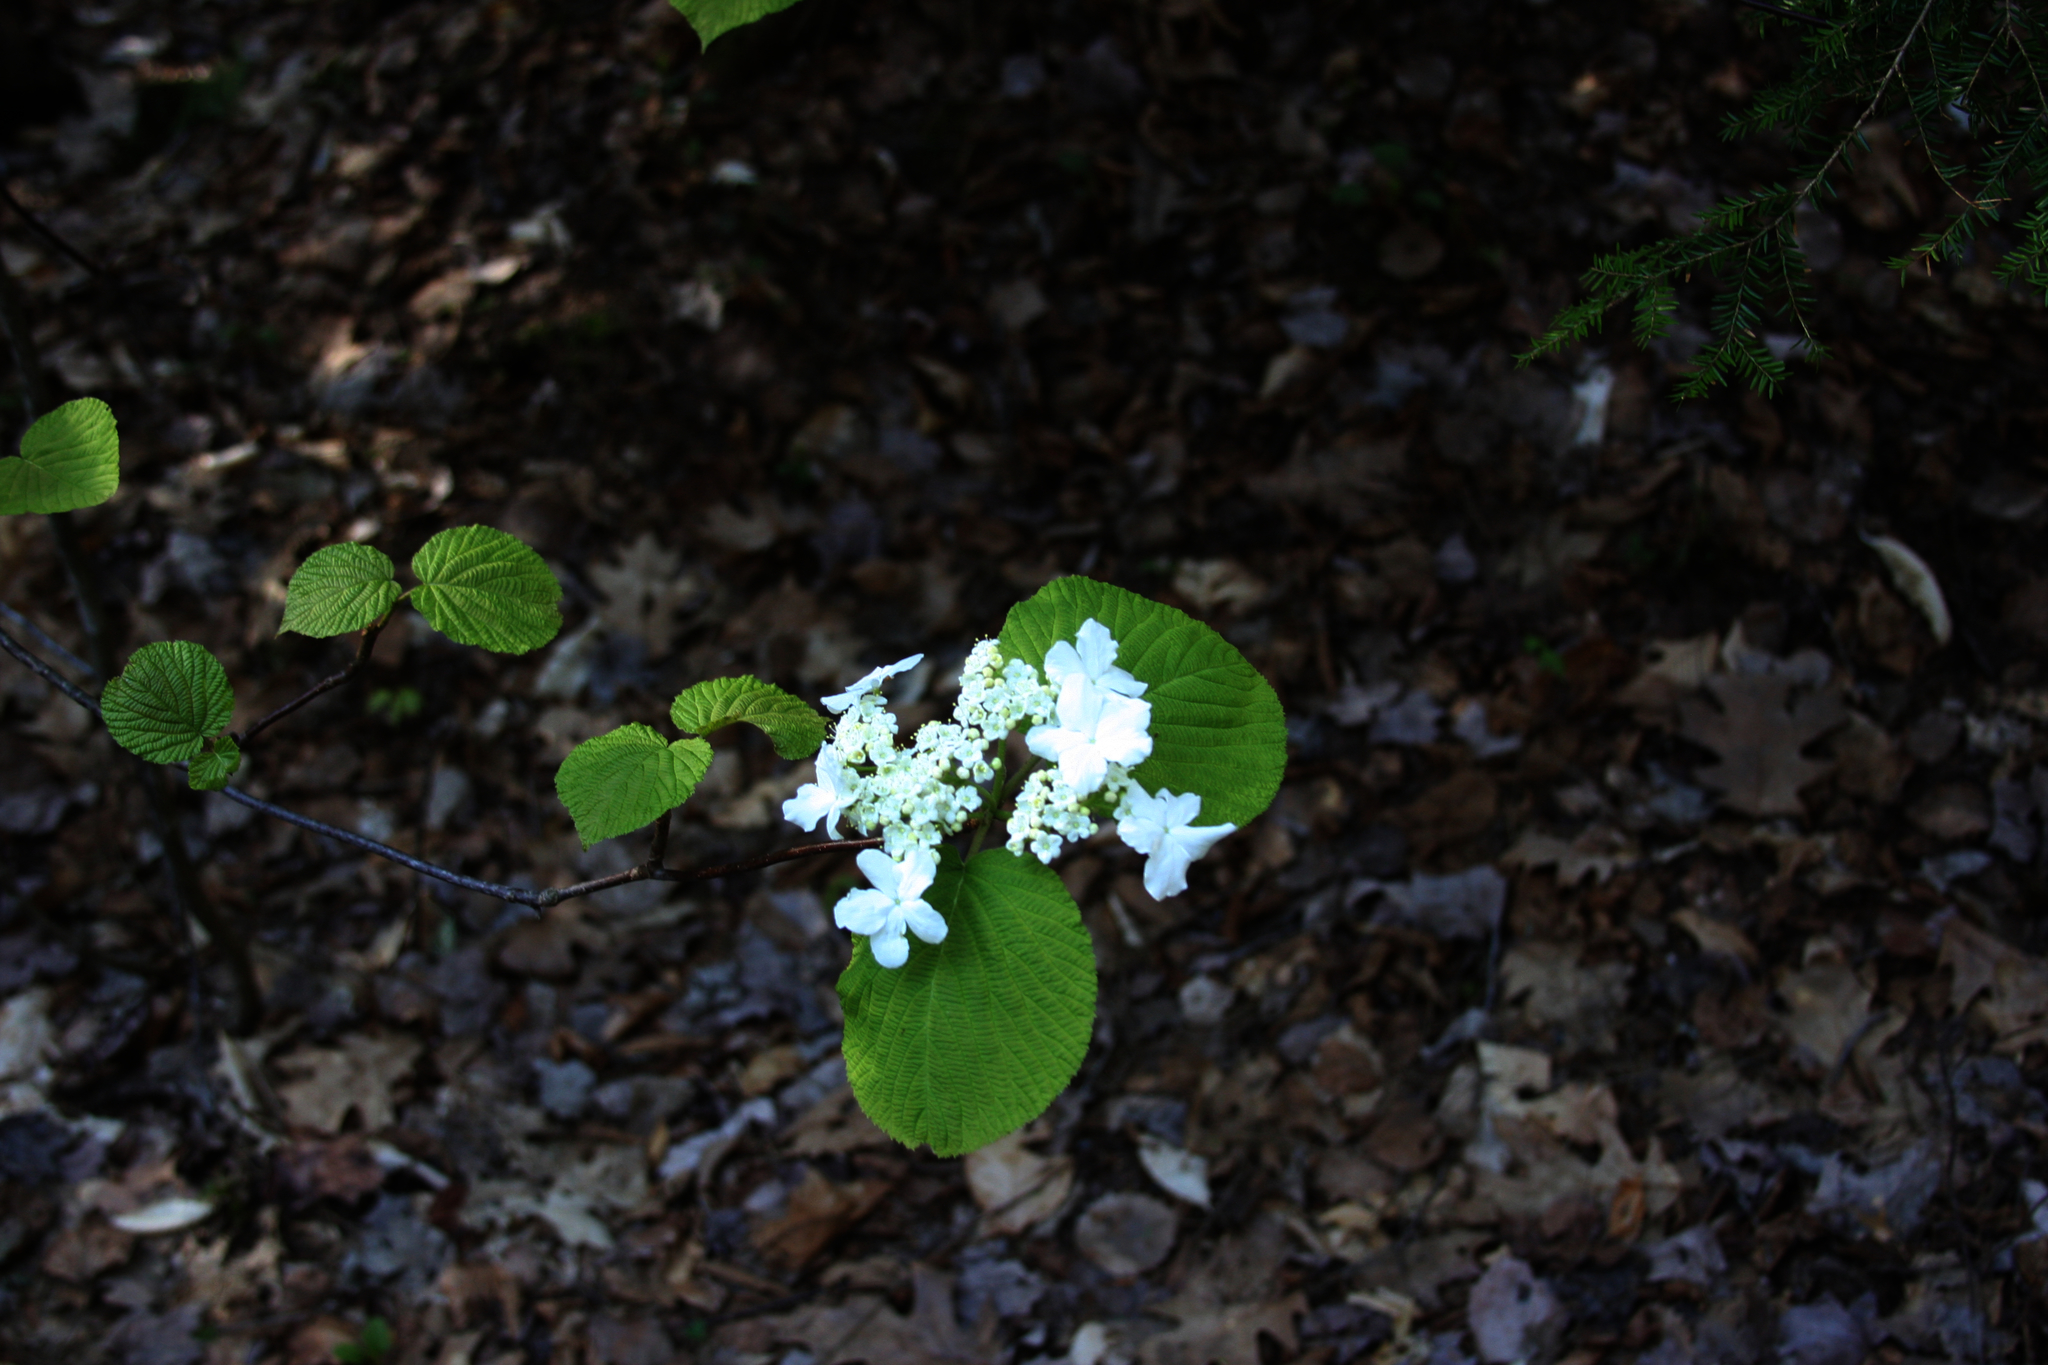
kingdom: Plantae
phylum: Tracheophyta
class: Magnoliopsida
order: Dipsacales
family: Viburnaceae
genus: Viburnum
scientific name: Viburnum lantanoides
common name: Hobblebush
